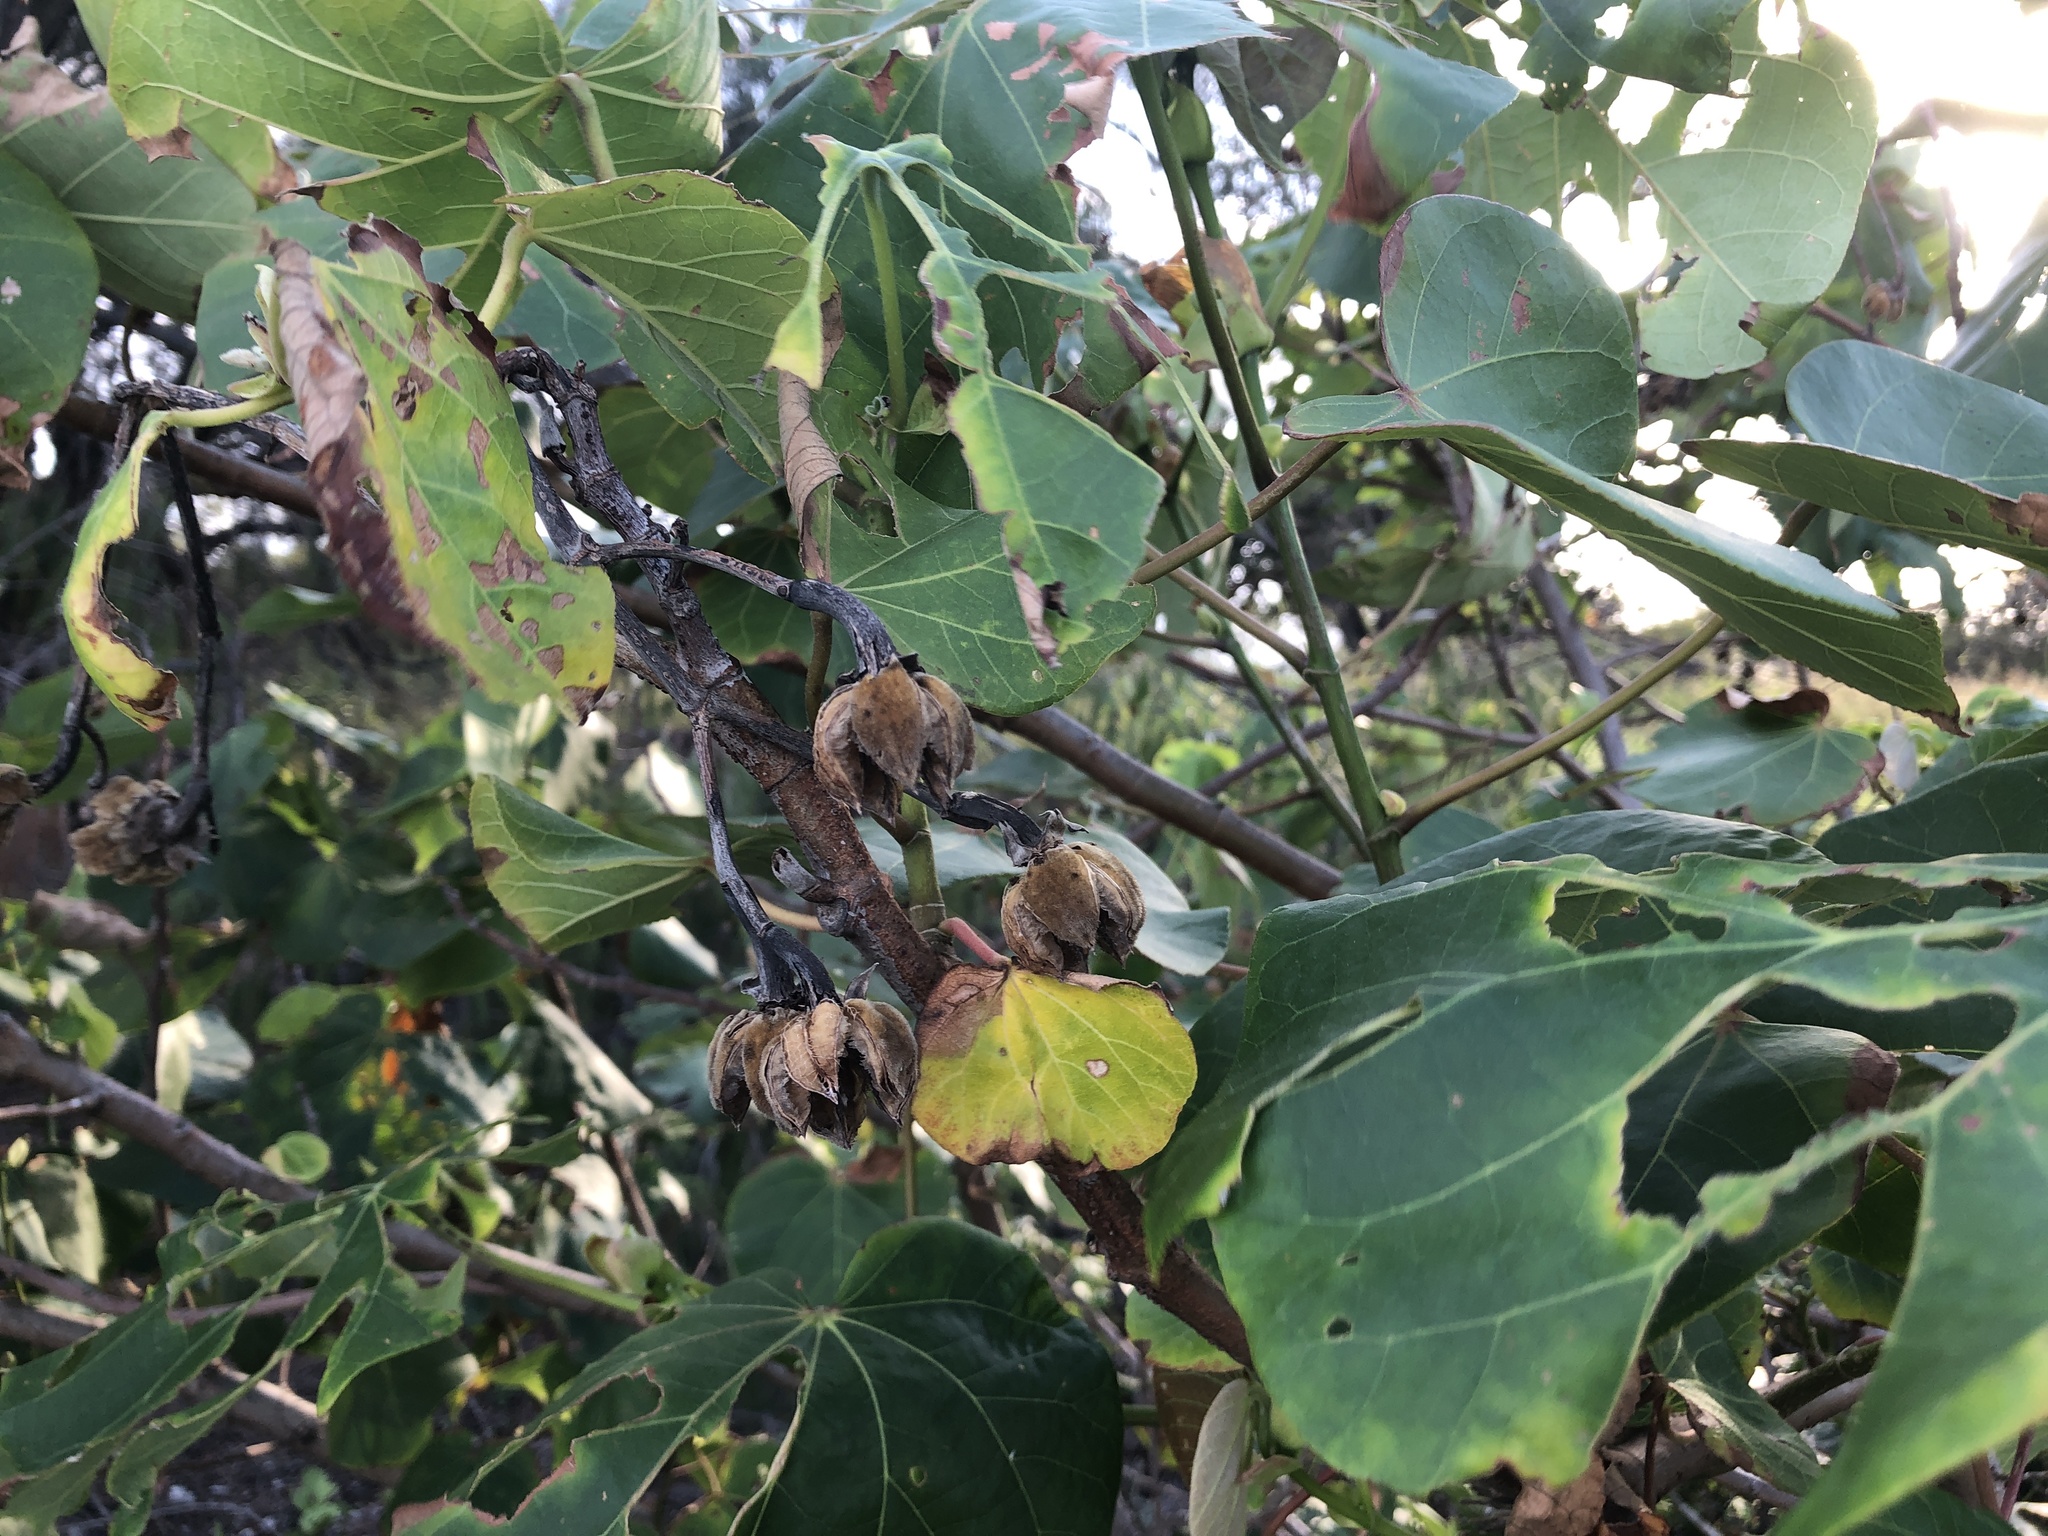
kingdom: Plantae
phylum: Tracheophyta
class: Magnoliopsida
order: Malvales
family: Malvaceae
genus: Talipariti
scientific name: Talipariti tiliaceum
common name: Sea hibiscus
